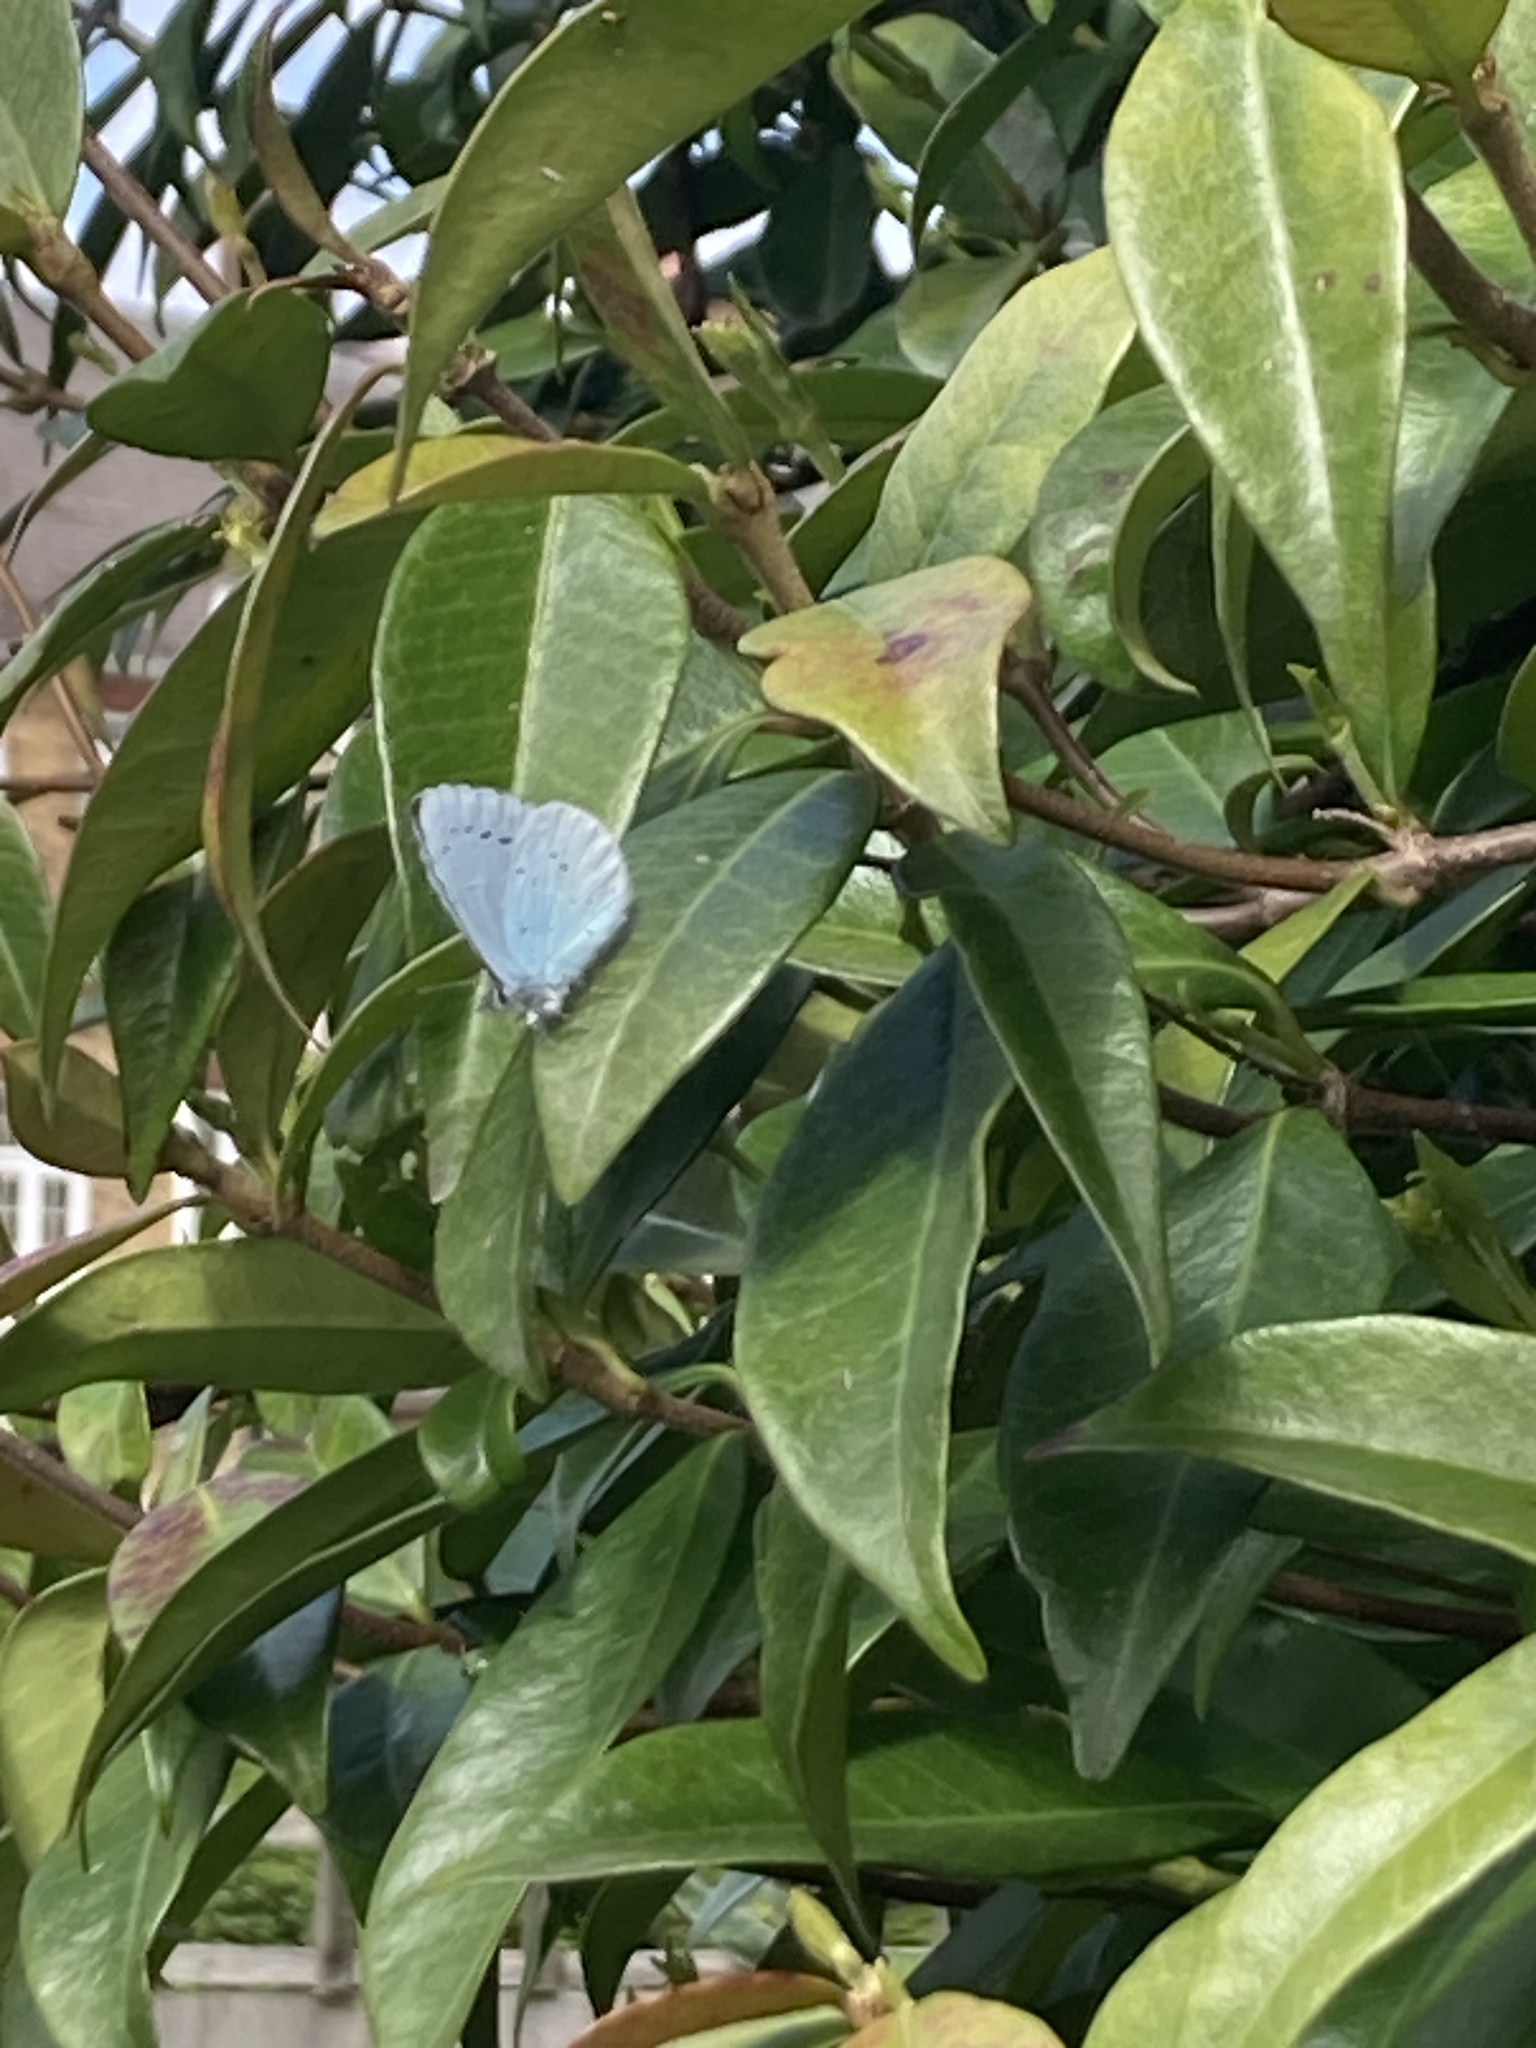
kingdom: Animalia
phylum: Arthropoda
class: Insecta
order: Lepidoptera
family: Lycaenidae
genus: Celastrina
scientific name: Celastrina argiolus
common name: Holly blue
